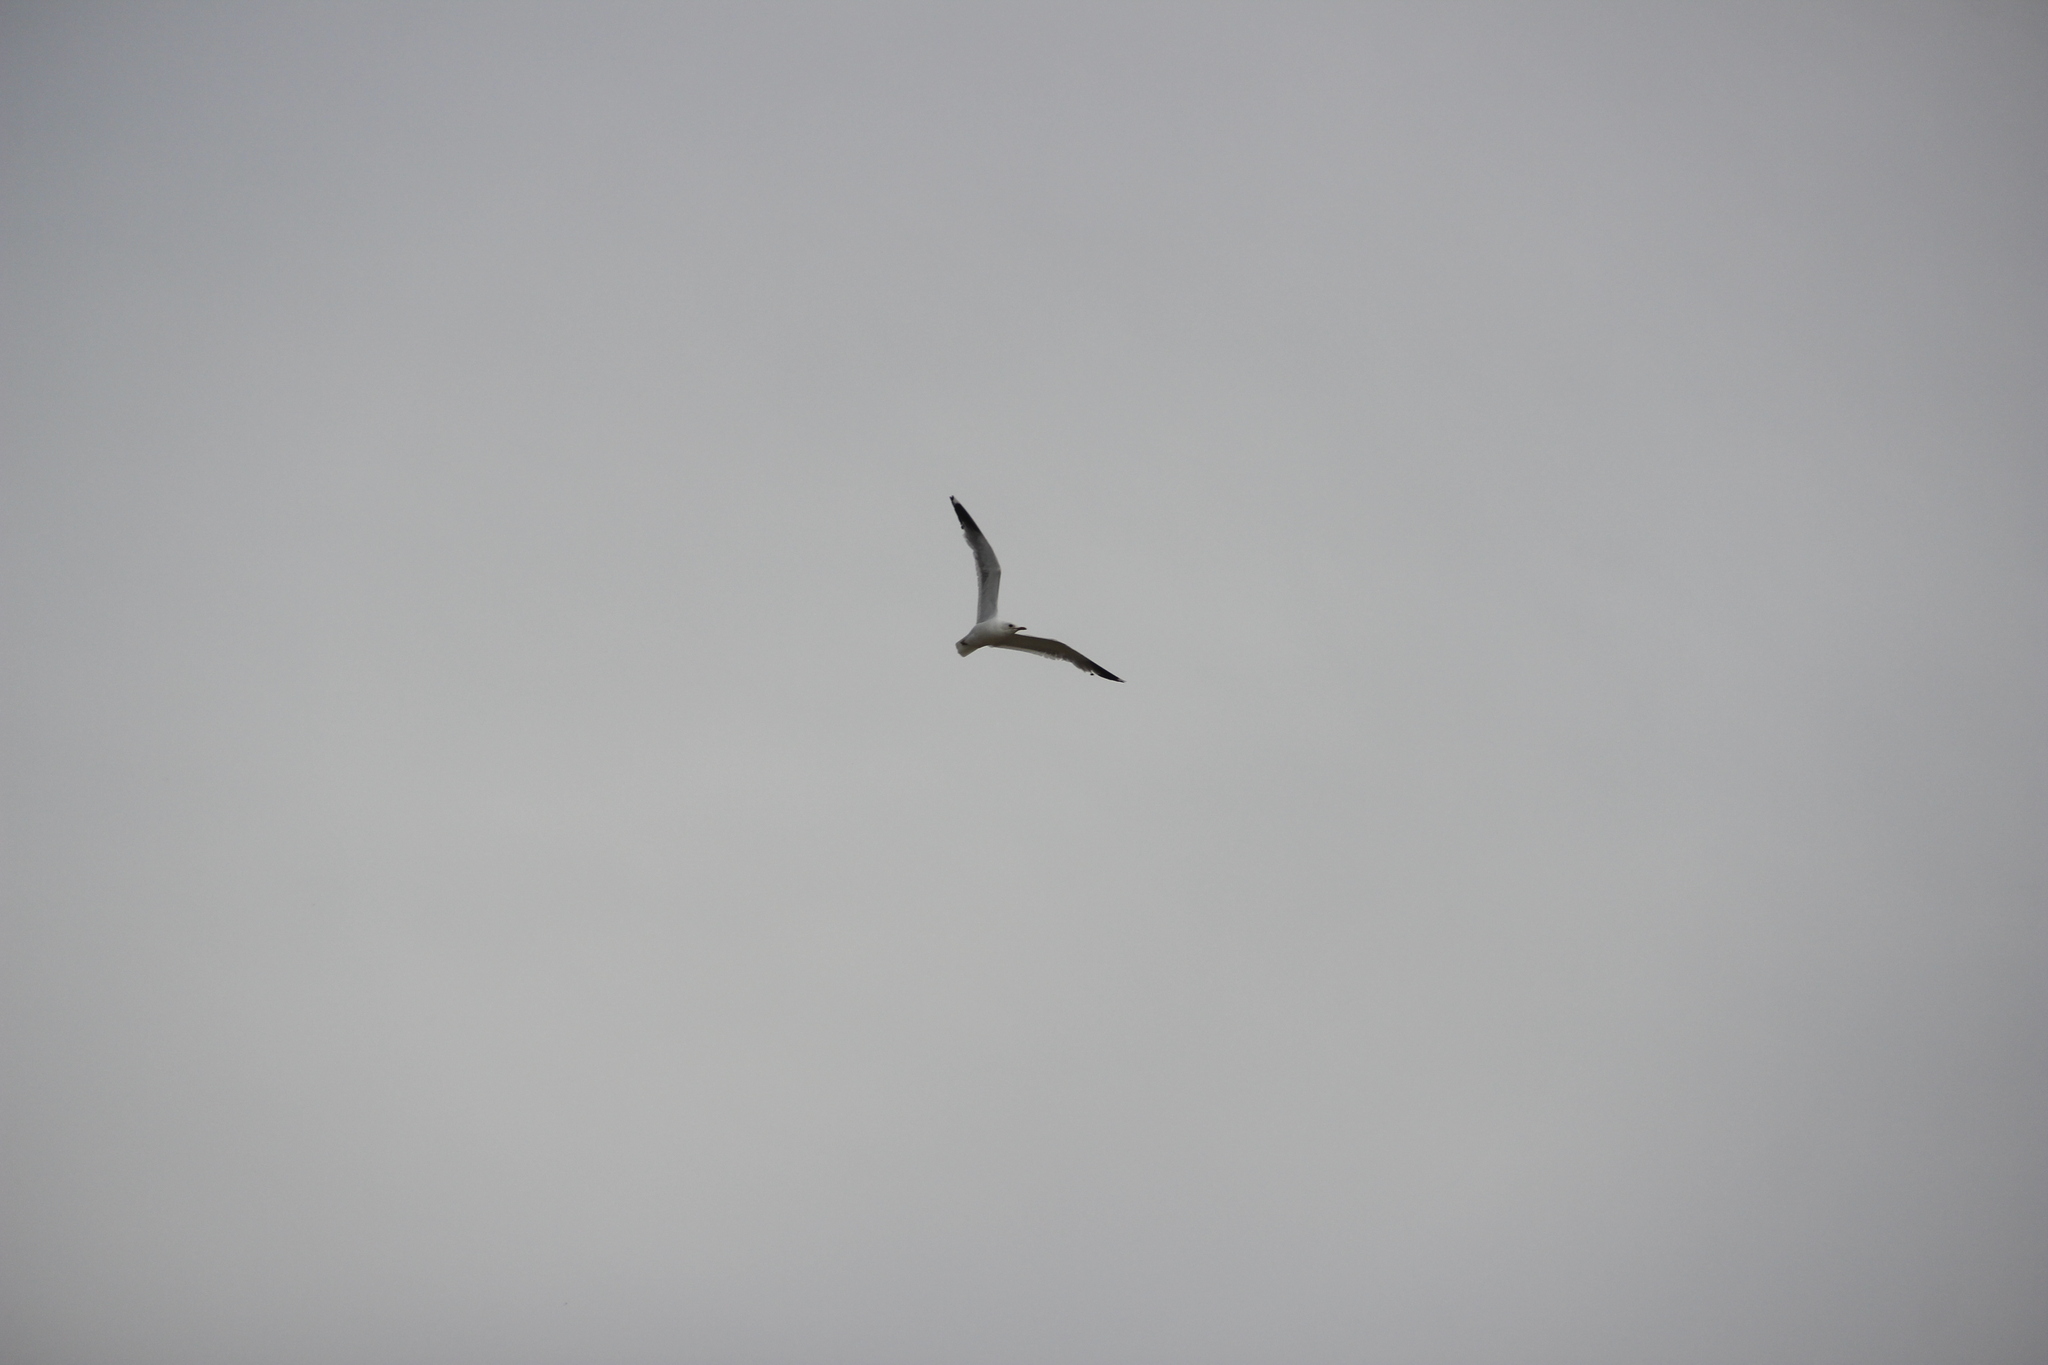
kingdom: Animalia
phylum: Chordata
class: Aves
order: Charadriiformes
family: Laridae
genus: Larus
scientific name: Larus canus
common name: Mew gull
